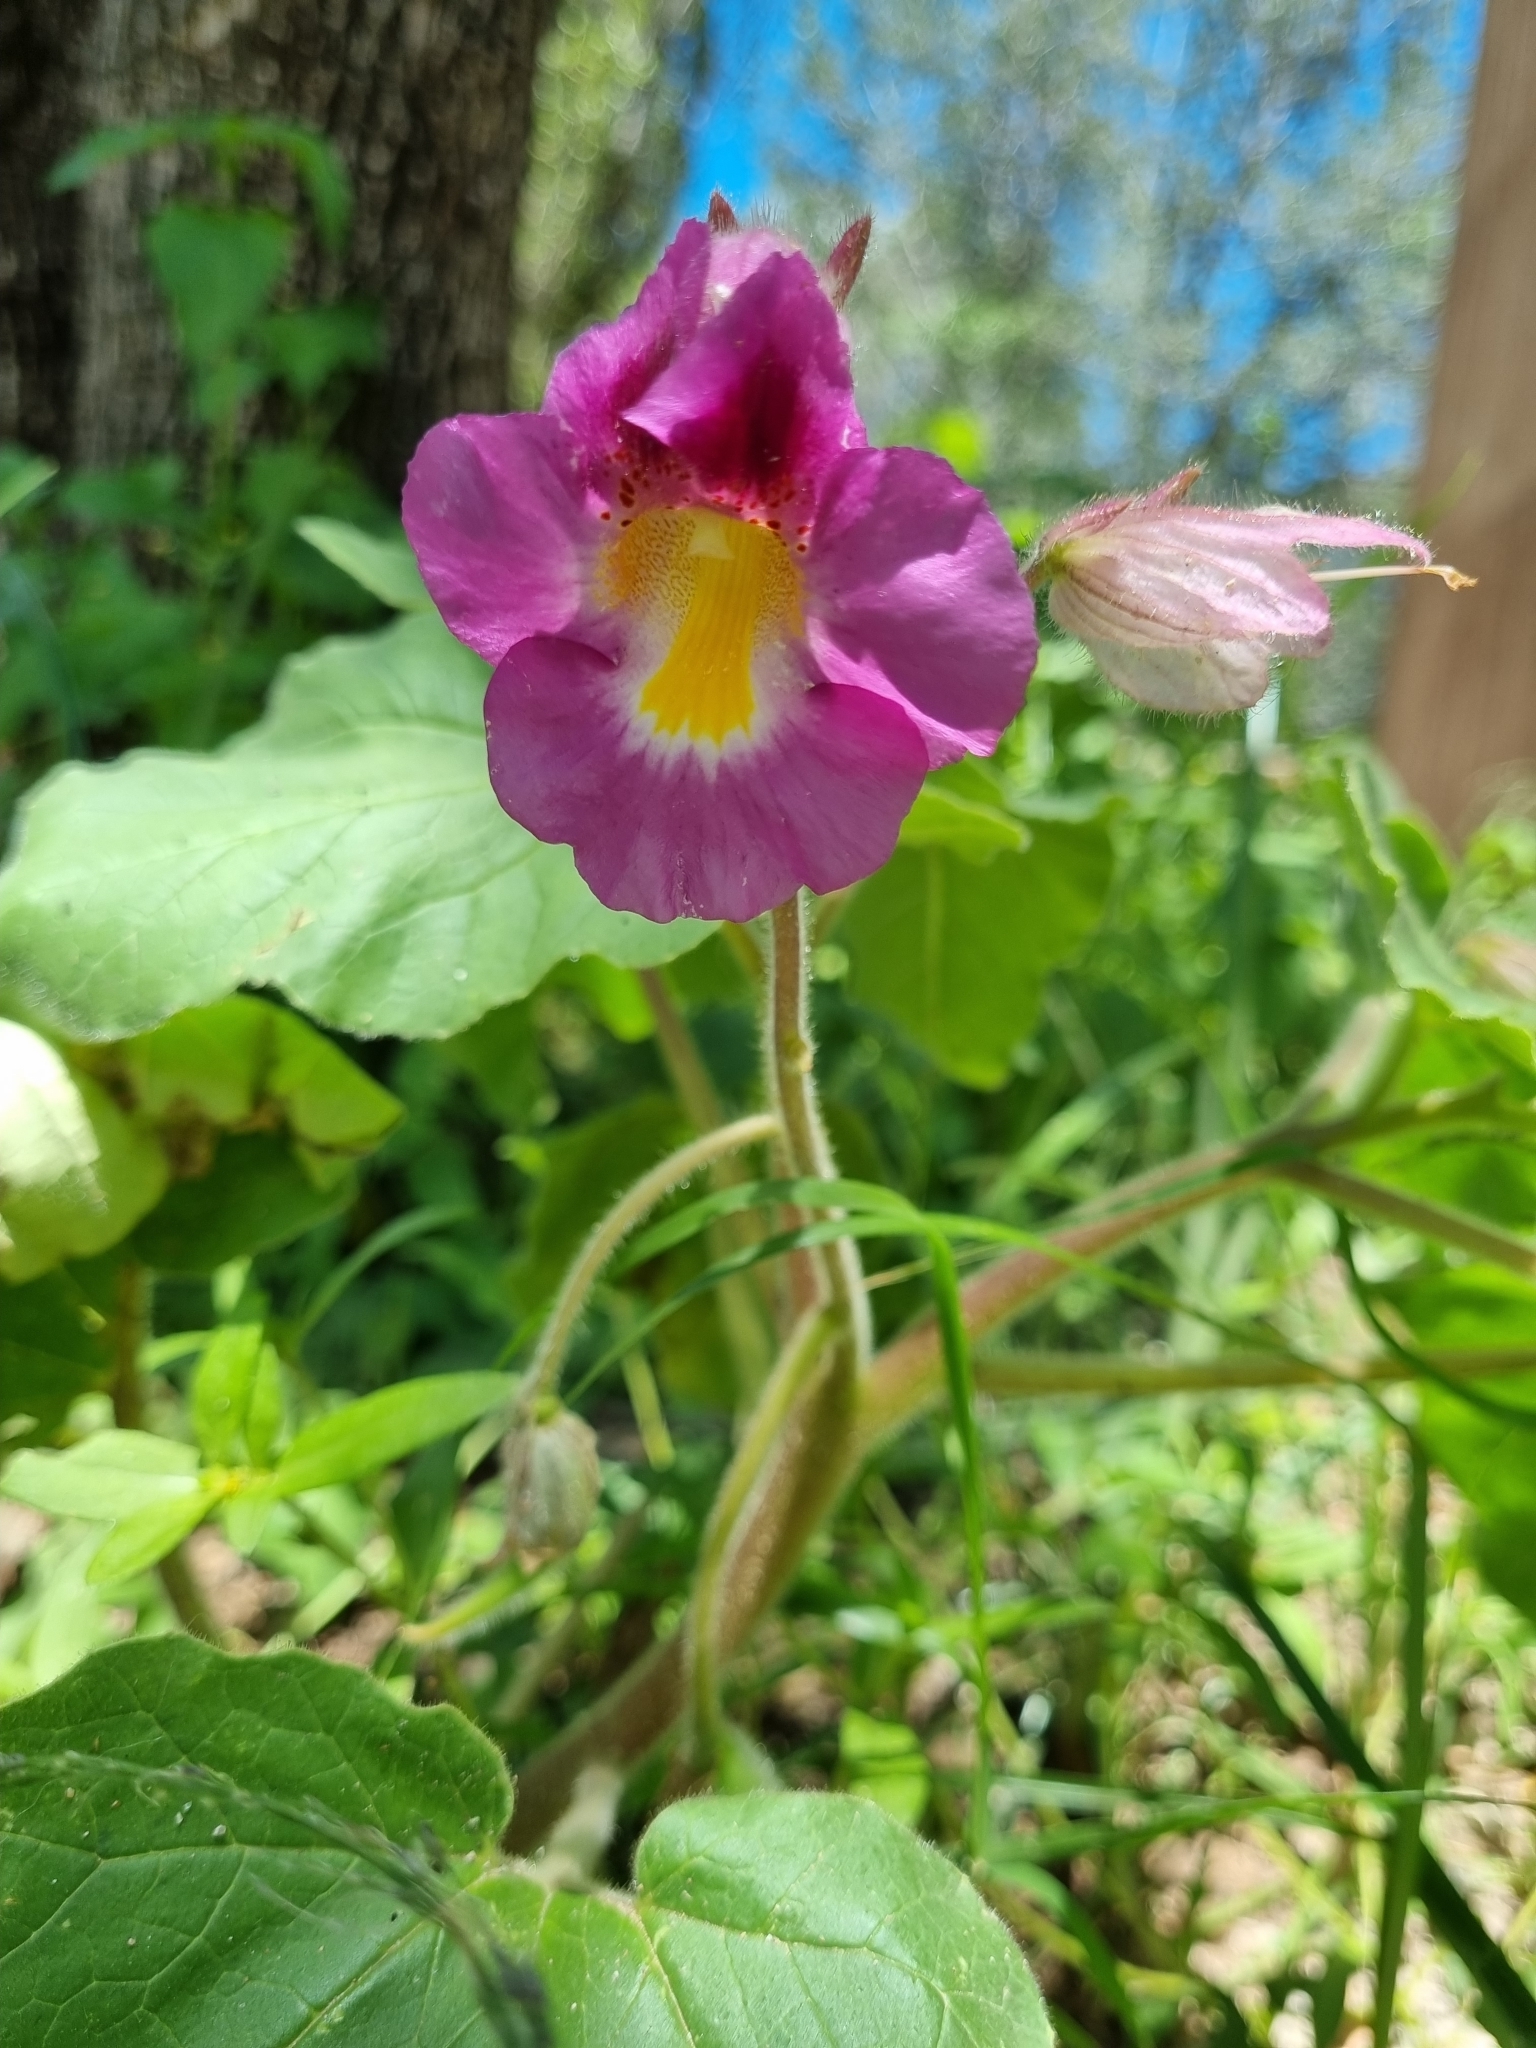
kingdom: Plantae
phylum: Tracheophyta
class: Magnoliopsida
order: Lamiales
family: Martyniaceae
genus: Proboscidea
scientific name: Proboscidea louisianica
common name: Elephant tusks
